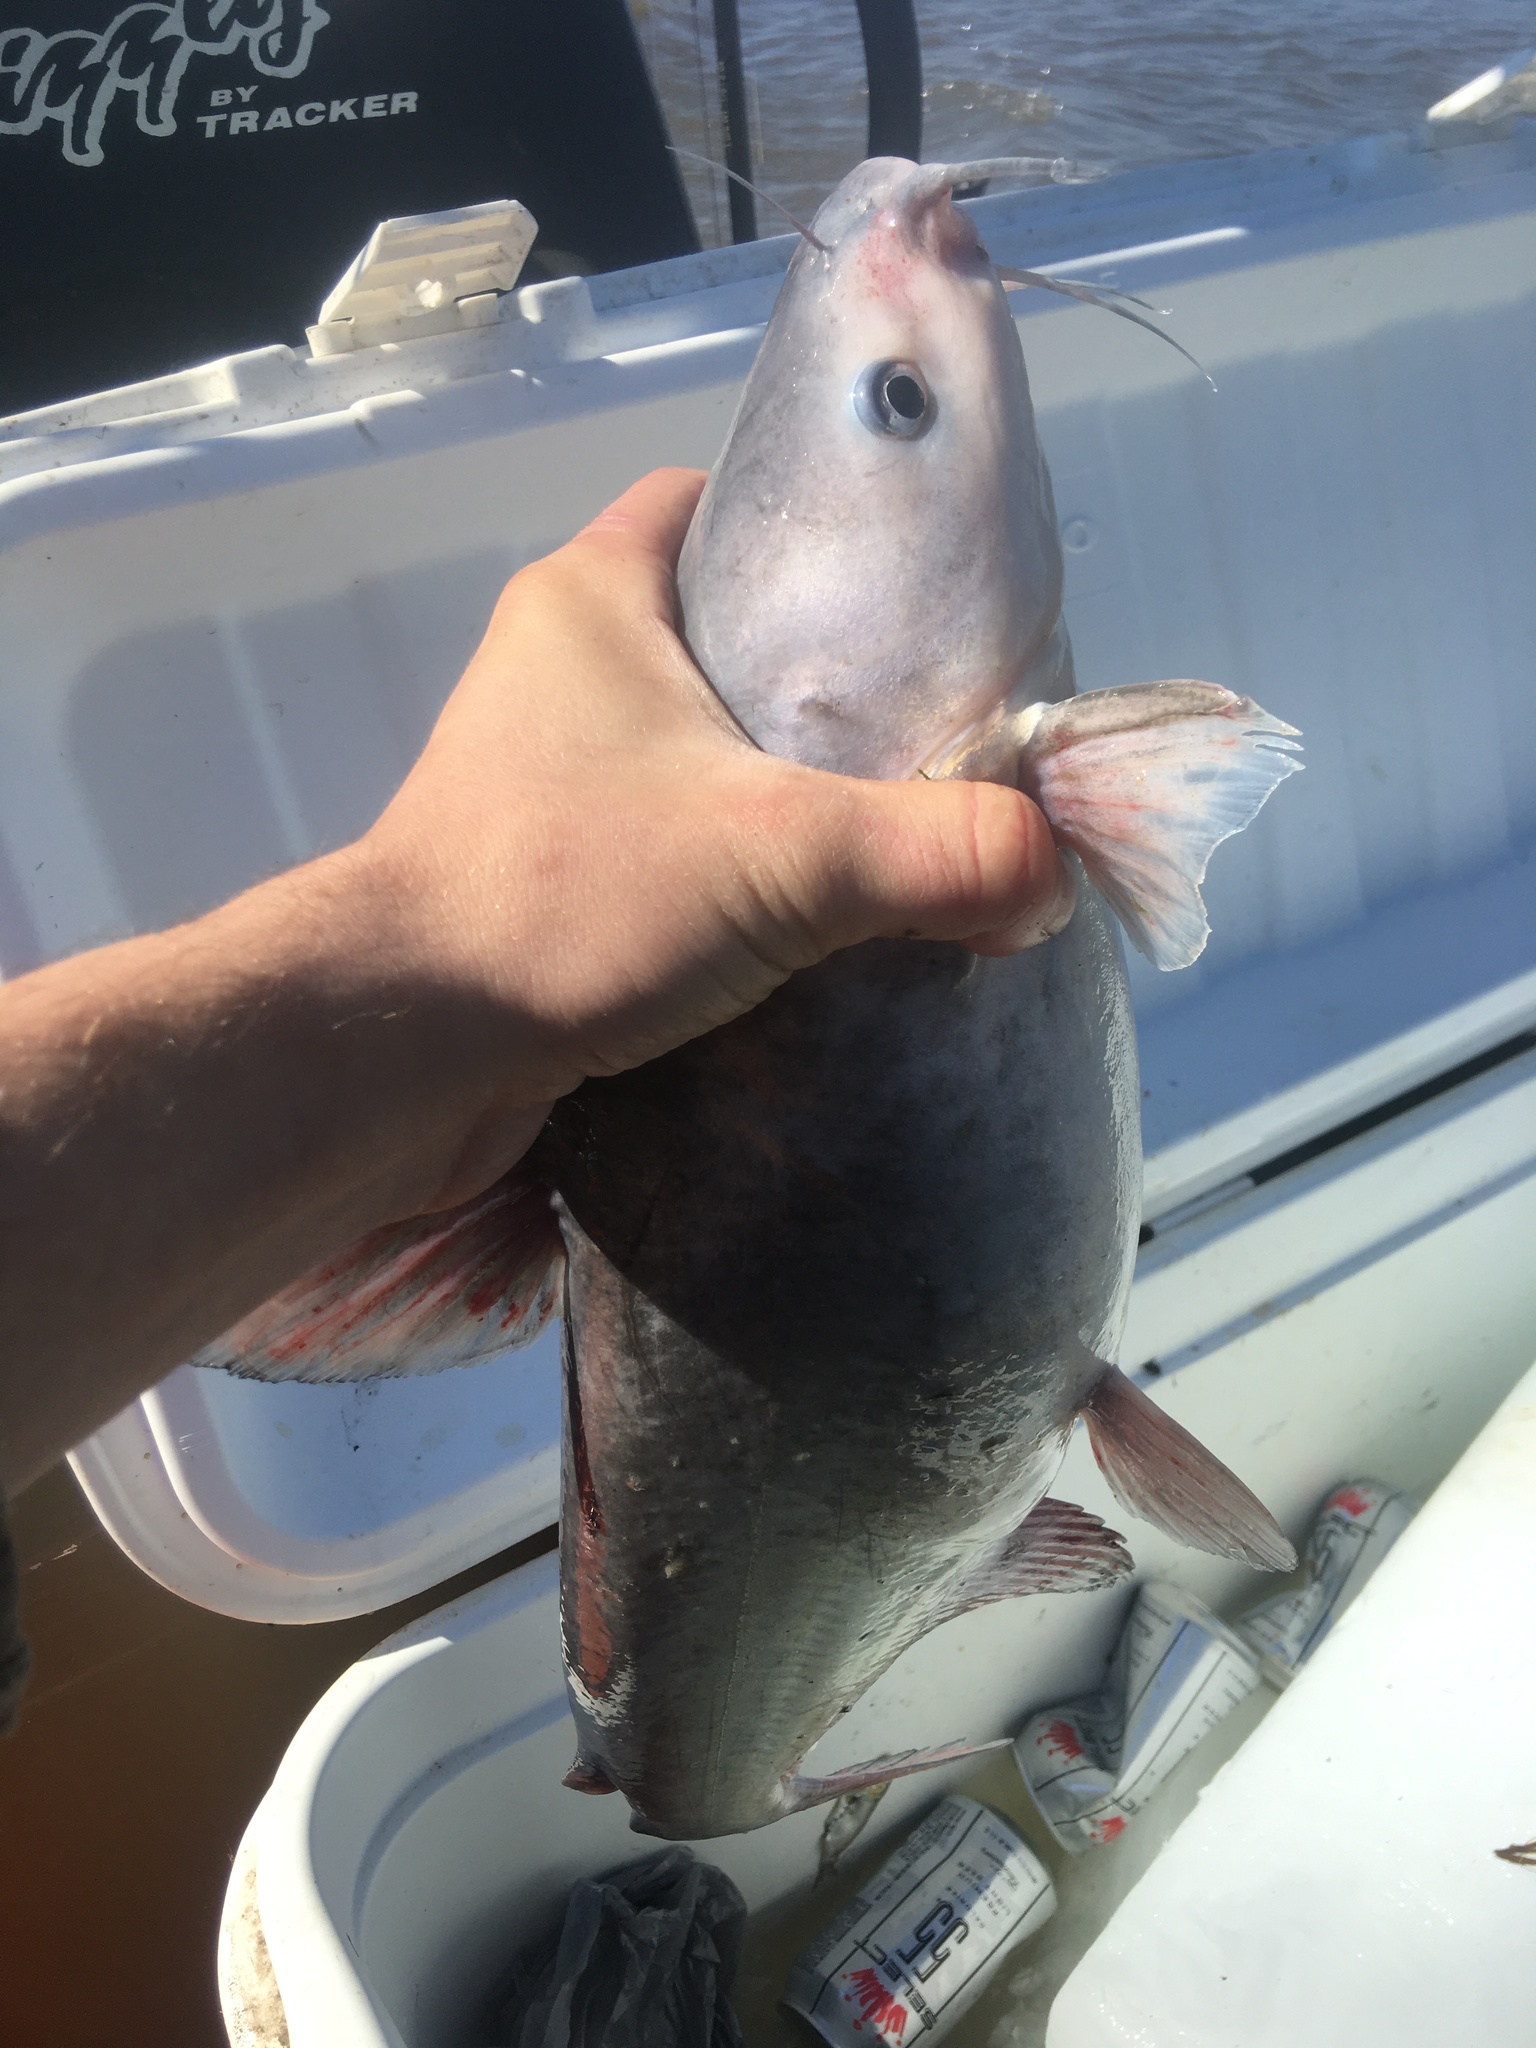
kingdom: Animalia
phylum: Chordata
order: Siluriformes
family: Ictaluridae
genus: Ictalurus
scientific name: Ictalurus furcatus
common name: Blue catfish
